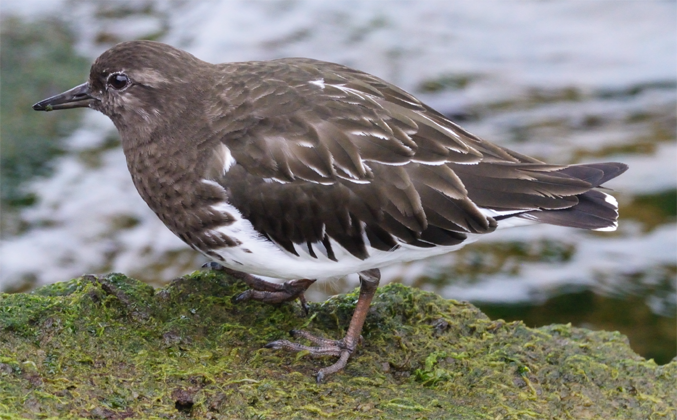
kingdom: Animalia
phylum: Chordata
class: Aves
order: Charadriiformes
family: Scolopacidae
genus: Arenaria
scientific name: Arenaria melanocephala
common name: Black turnstone
